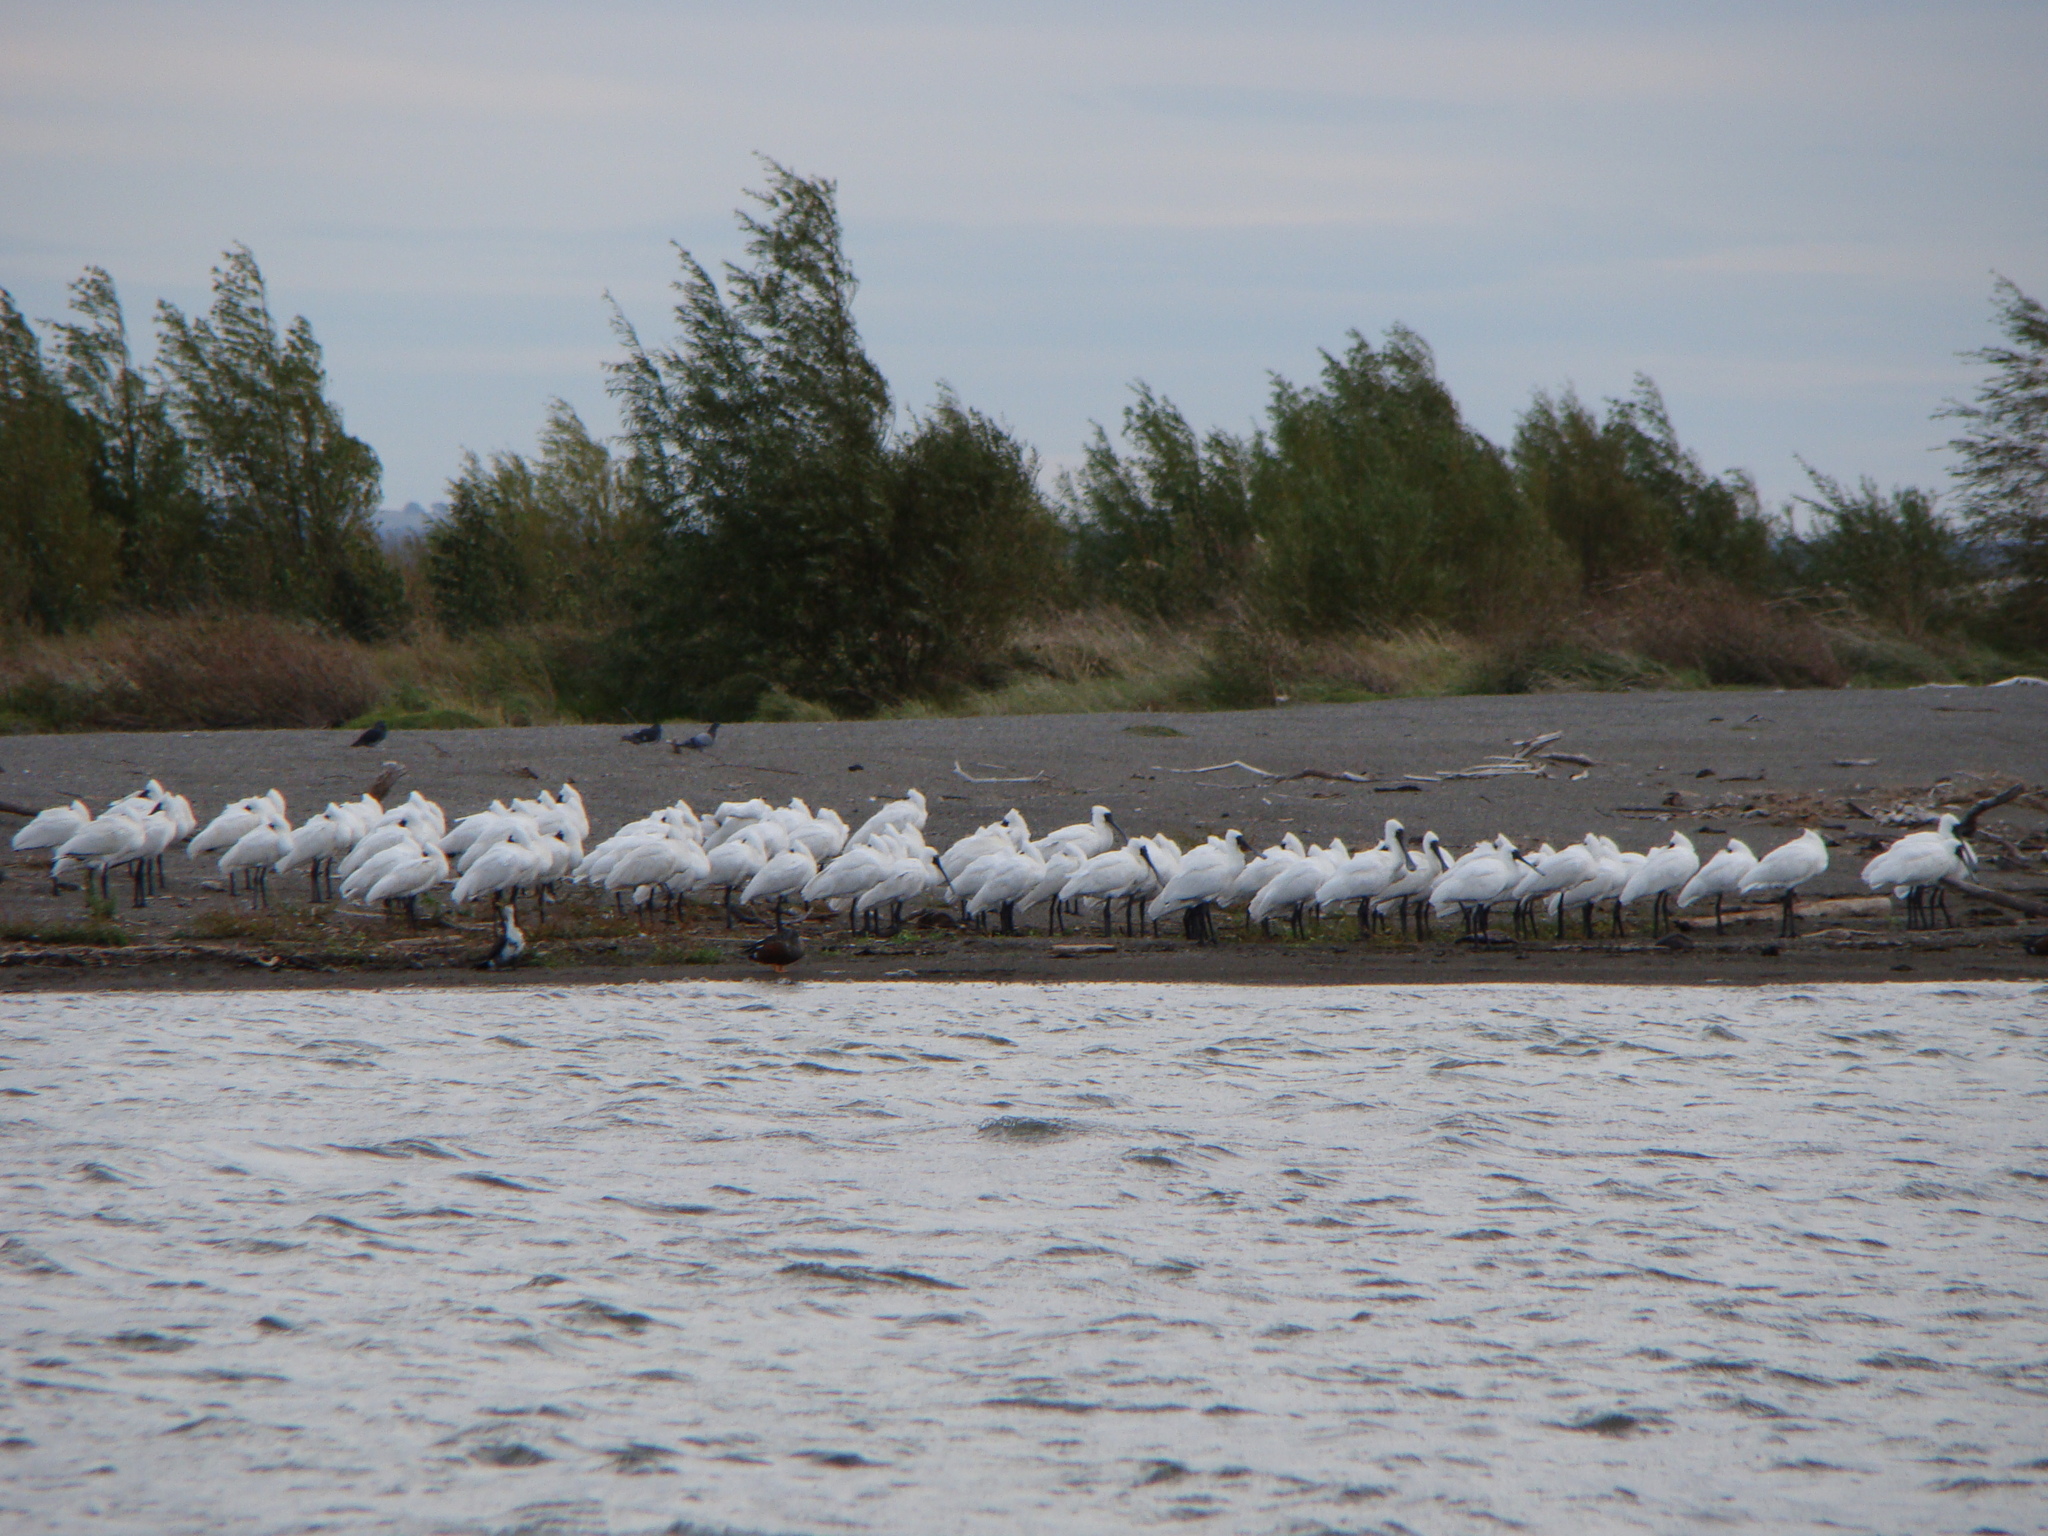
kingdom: Animalia
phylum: Chordata
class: Aves
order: Pelecaniformes
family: Threskiornithidae
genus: Platalea
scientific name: Platalea regia
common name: Royal spoonbill
